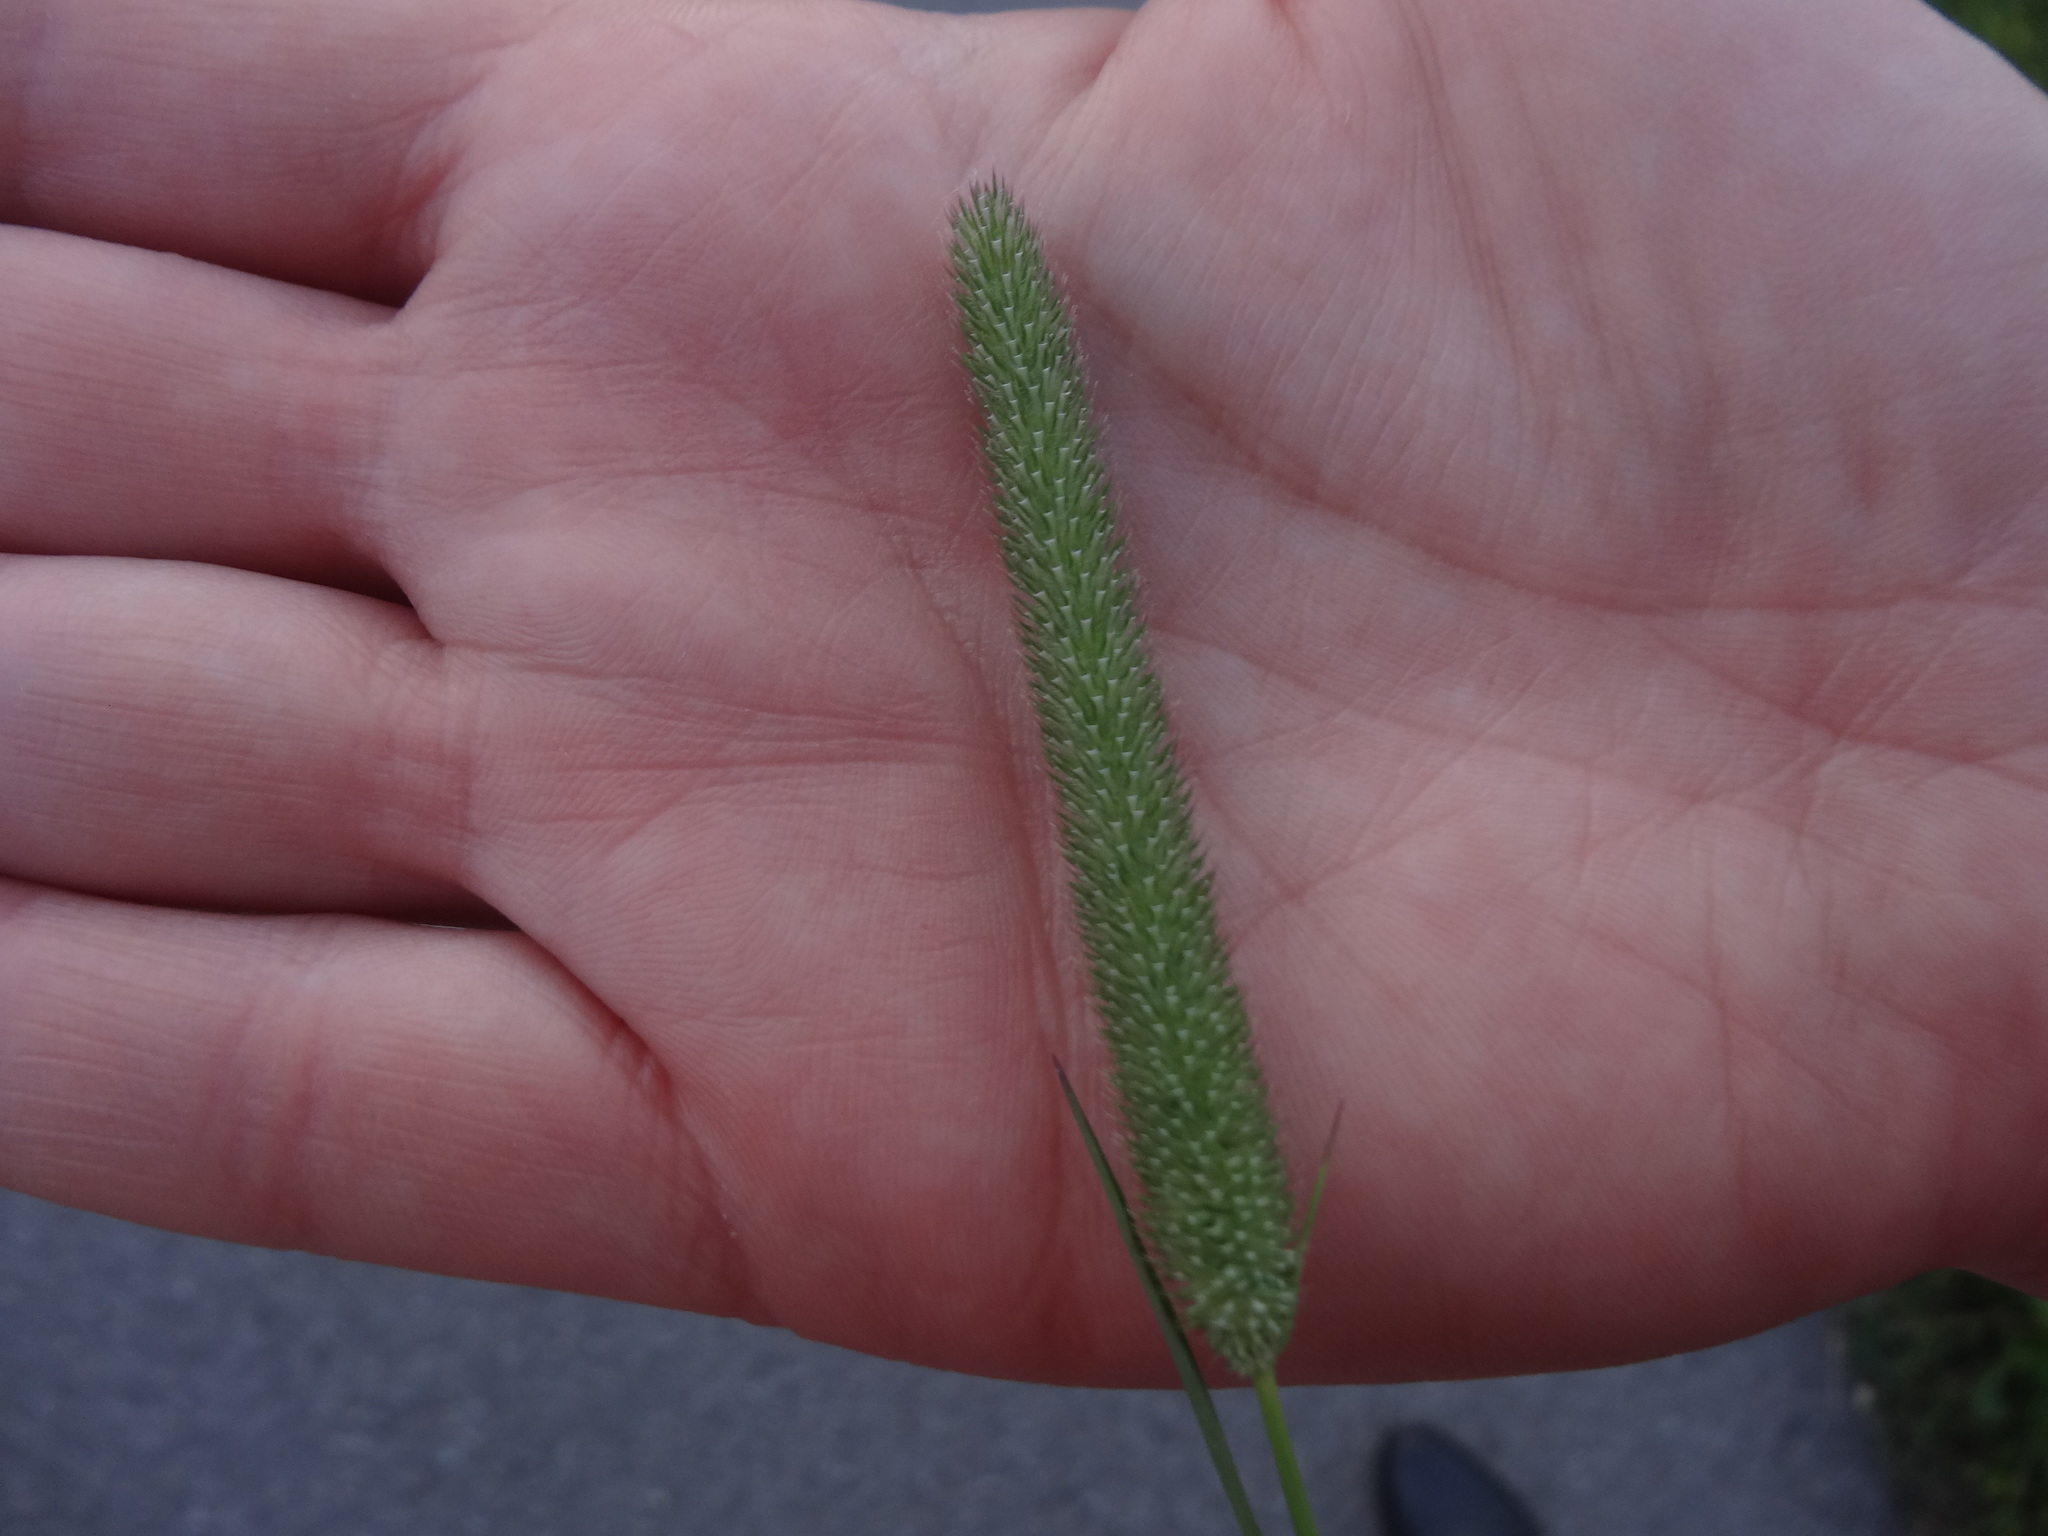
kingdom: Plantae
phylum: Tracheophyta
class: Liliopsida
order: Poales
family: Poaceae
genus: Phleum
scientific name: Phleum pratense
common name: Timothy grass
